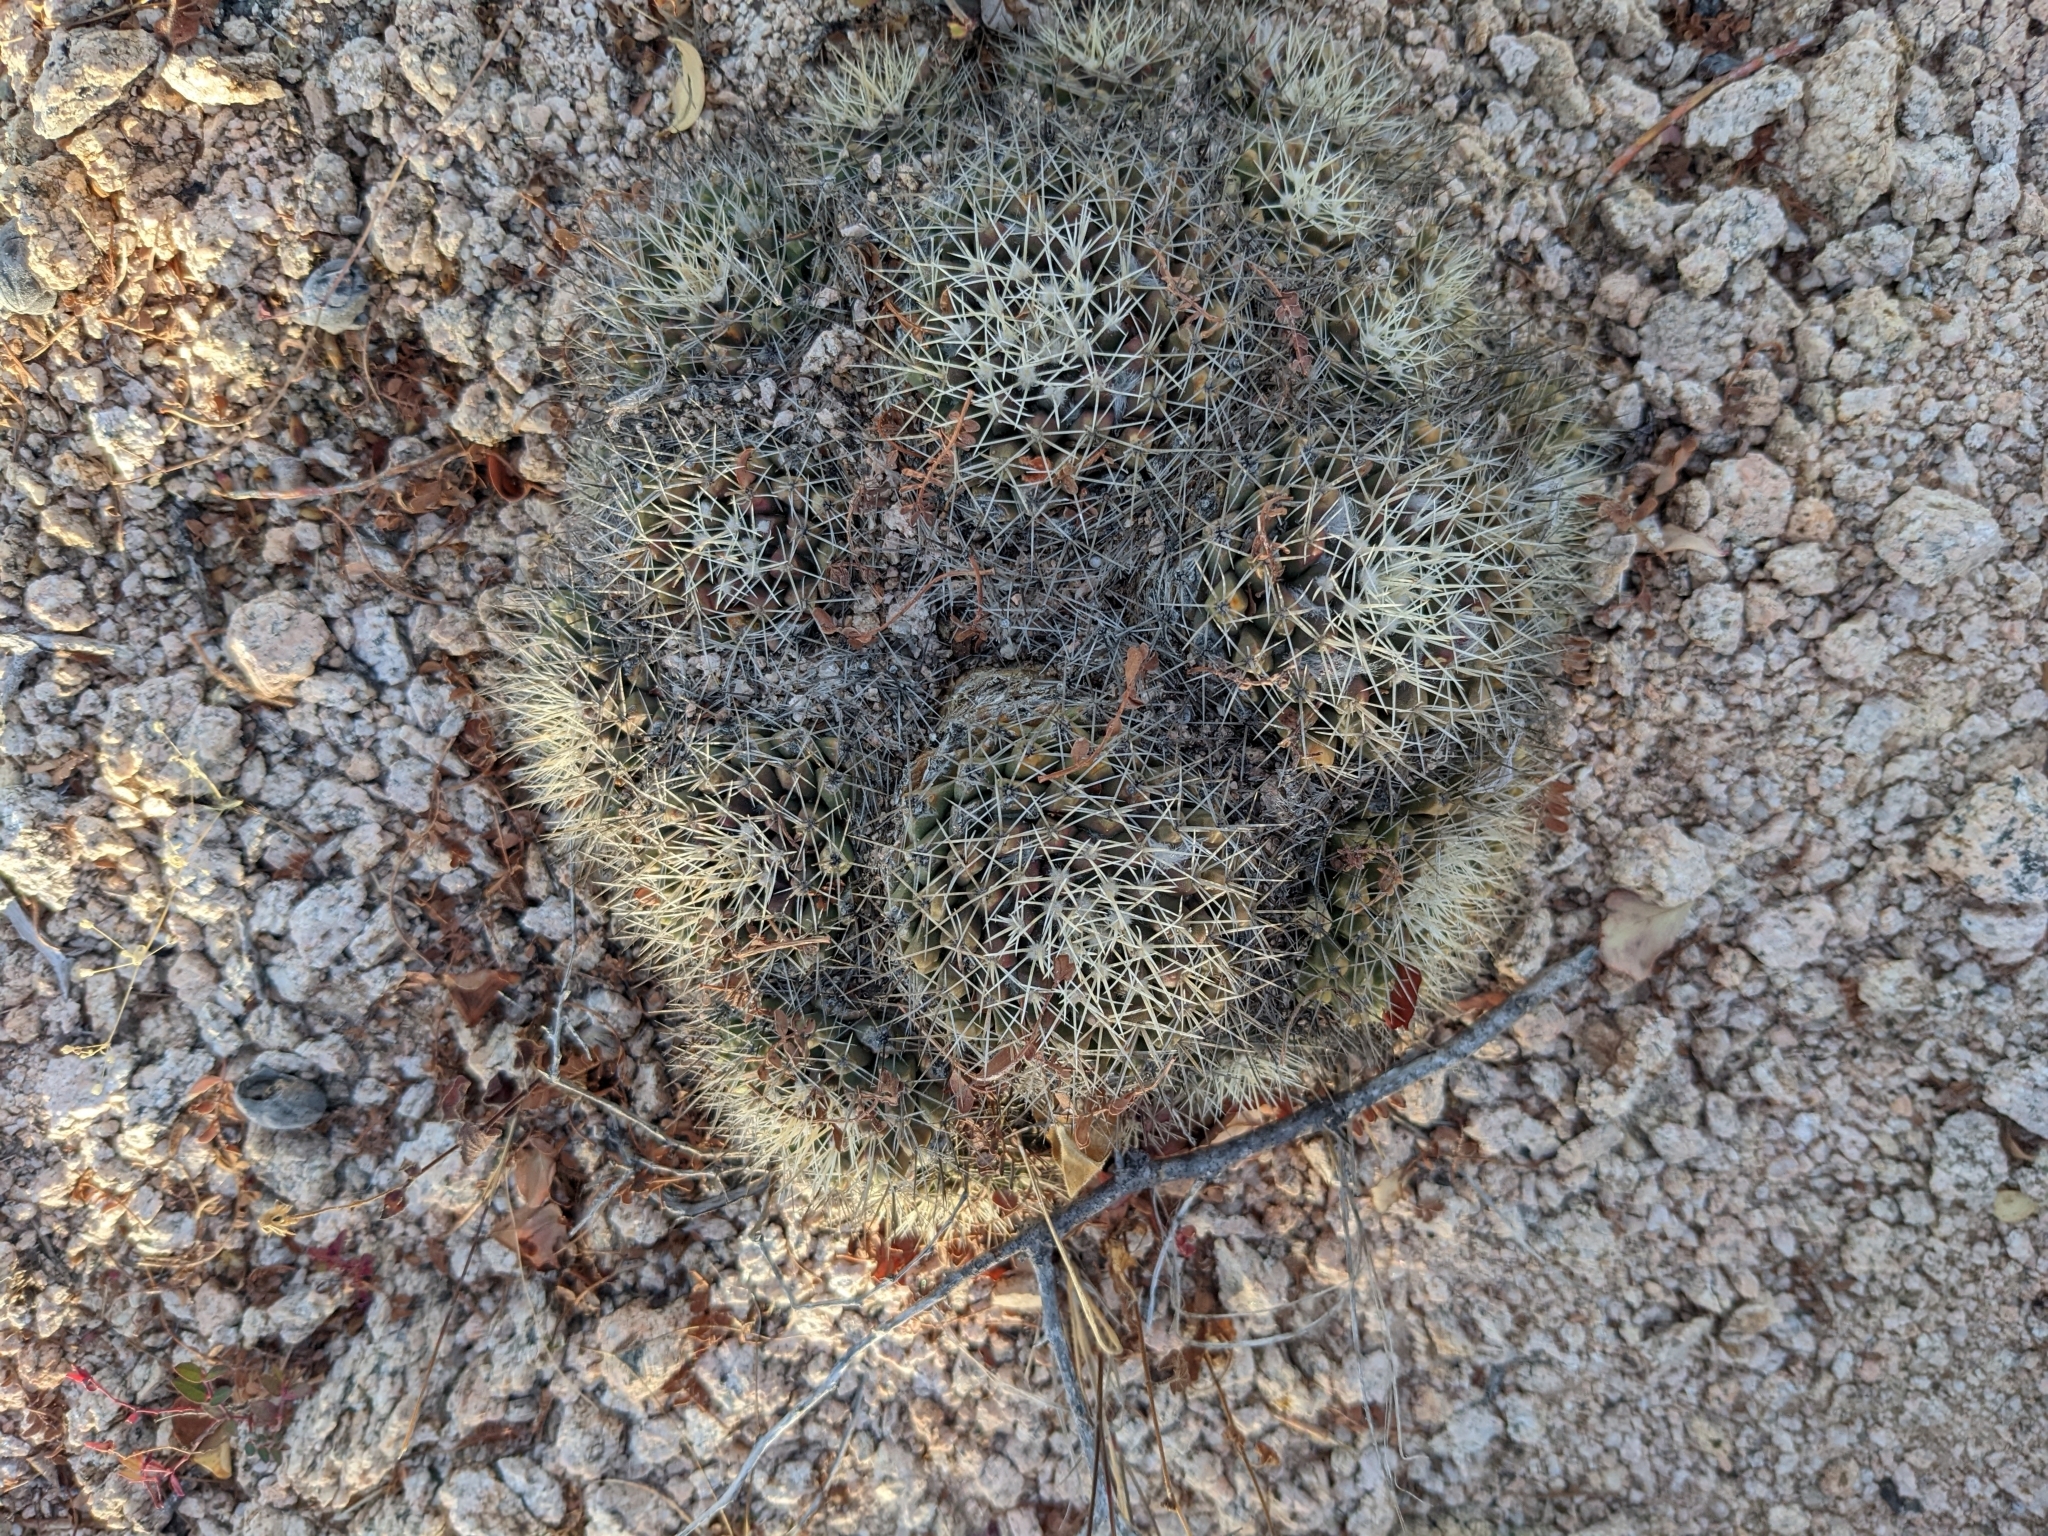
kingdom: Plantae
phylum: Tracheophyta
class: Magnoliopsida
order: Caryophyllales
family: Cactaceae
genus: Mammillaria
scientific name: Mammillaria petrophila
